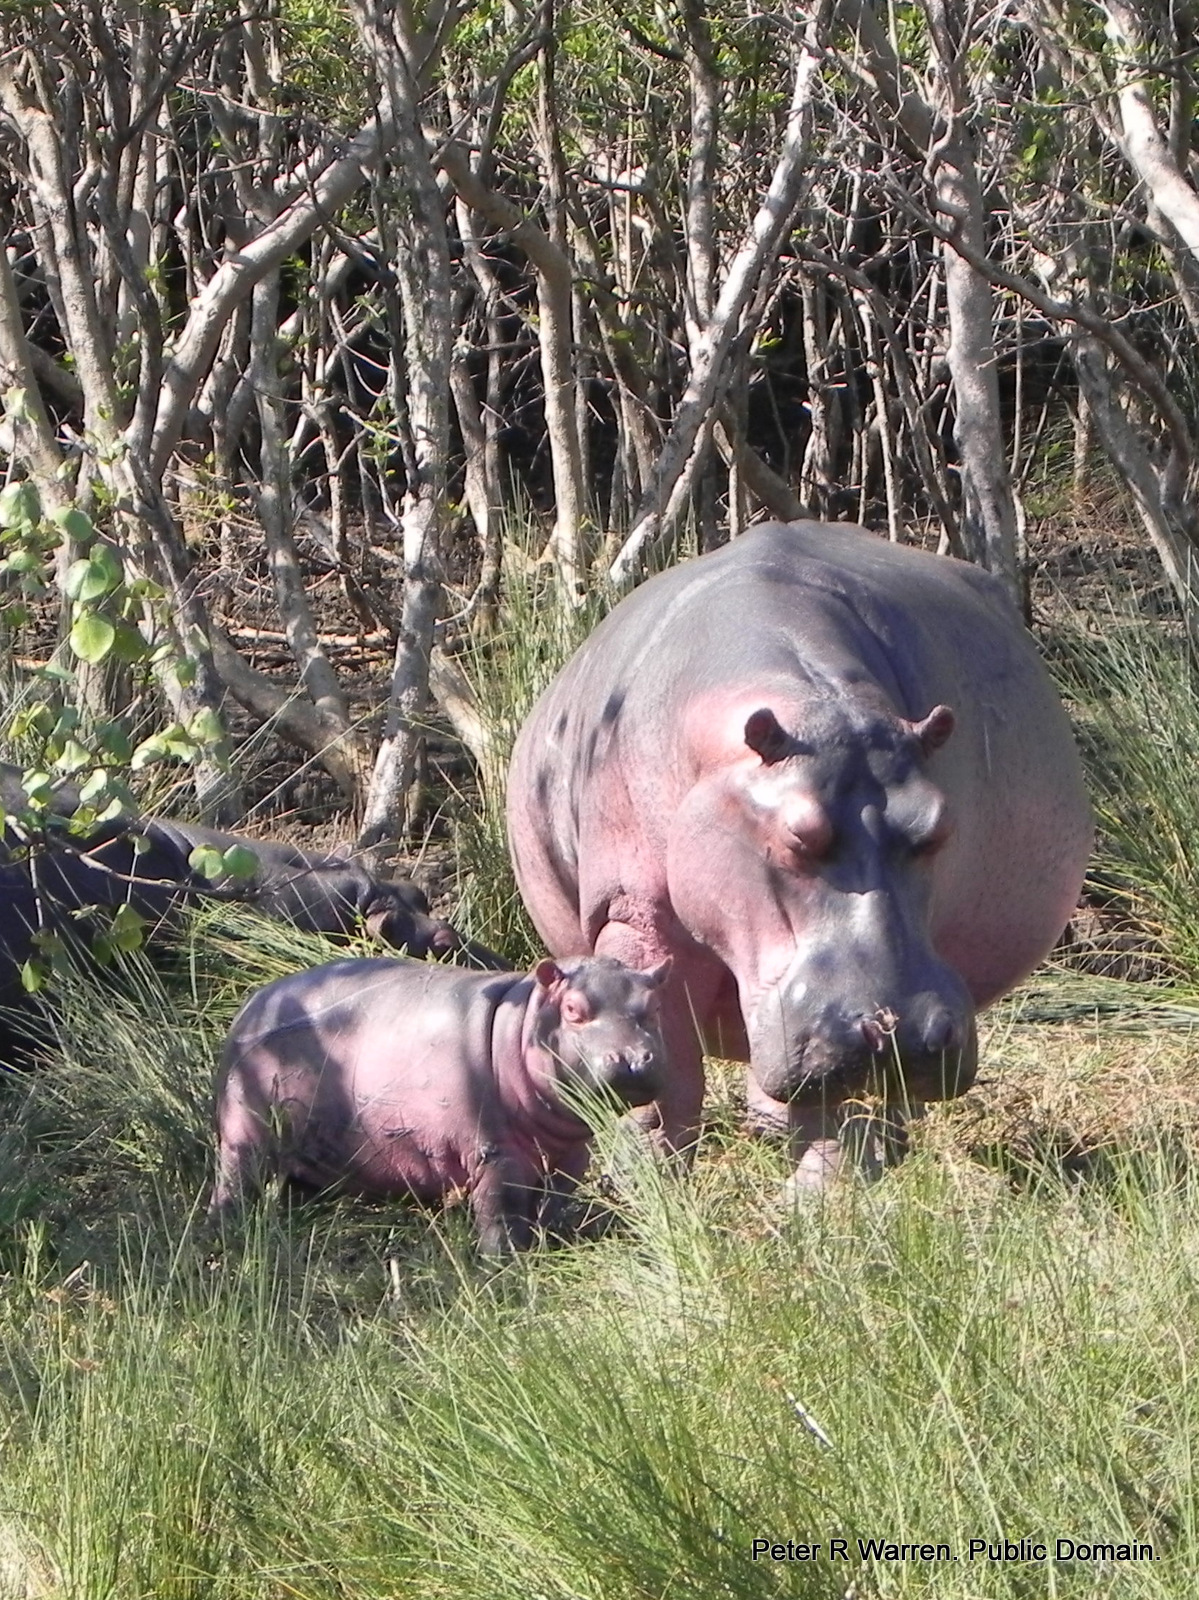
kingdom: Animalia
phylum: Chordata
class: Mammalia
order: Artiodactyla
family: Hippopotamidae
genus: Hippopotamus
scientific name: Hippopotamus amphibius
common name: Common hippopotamus
